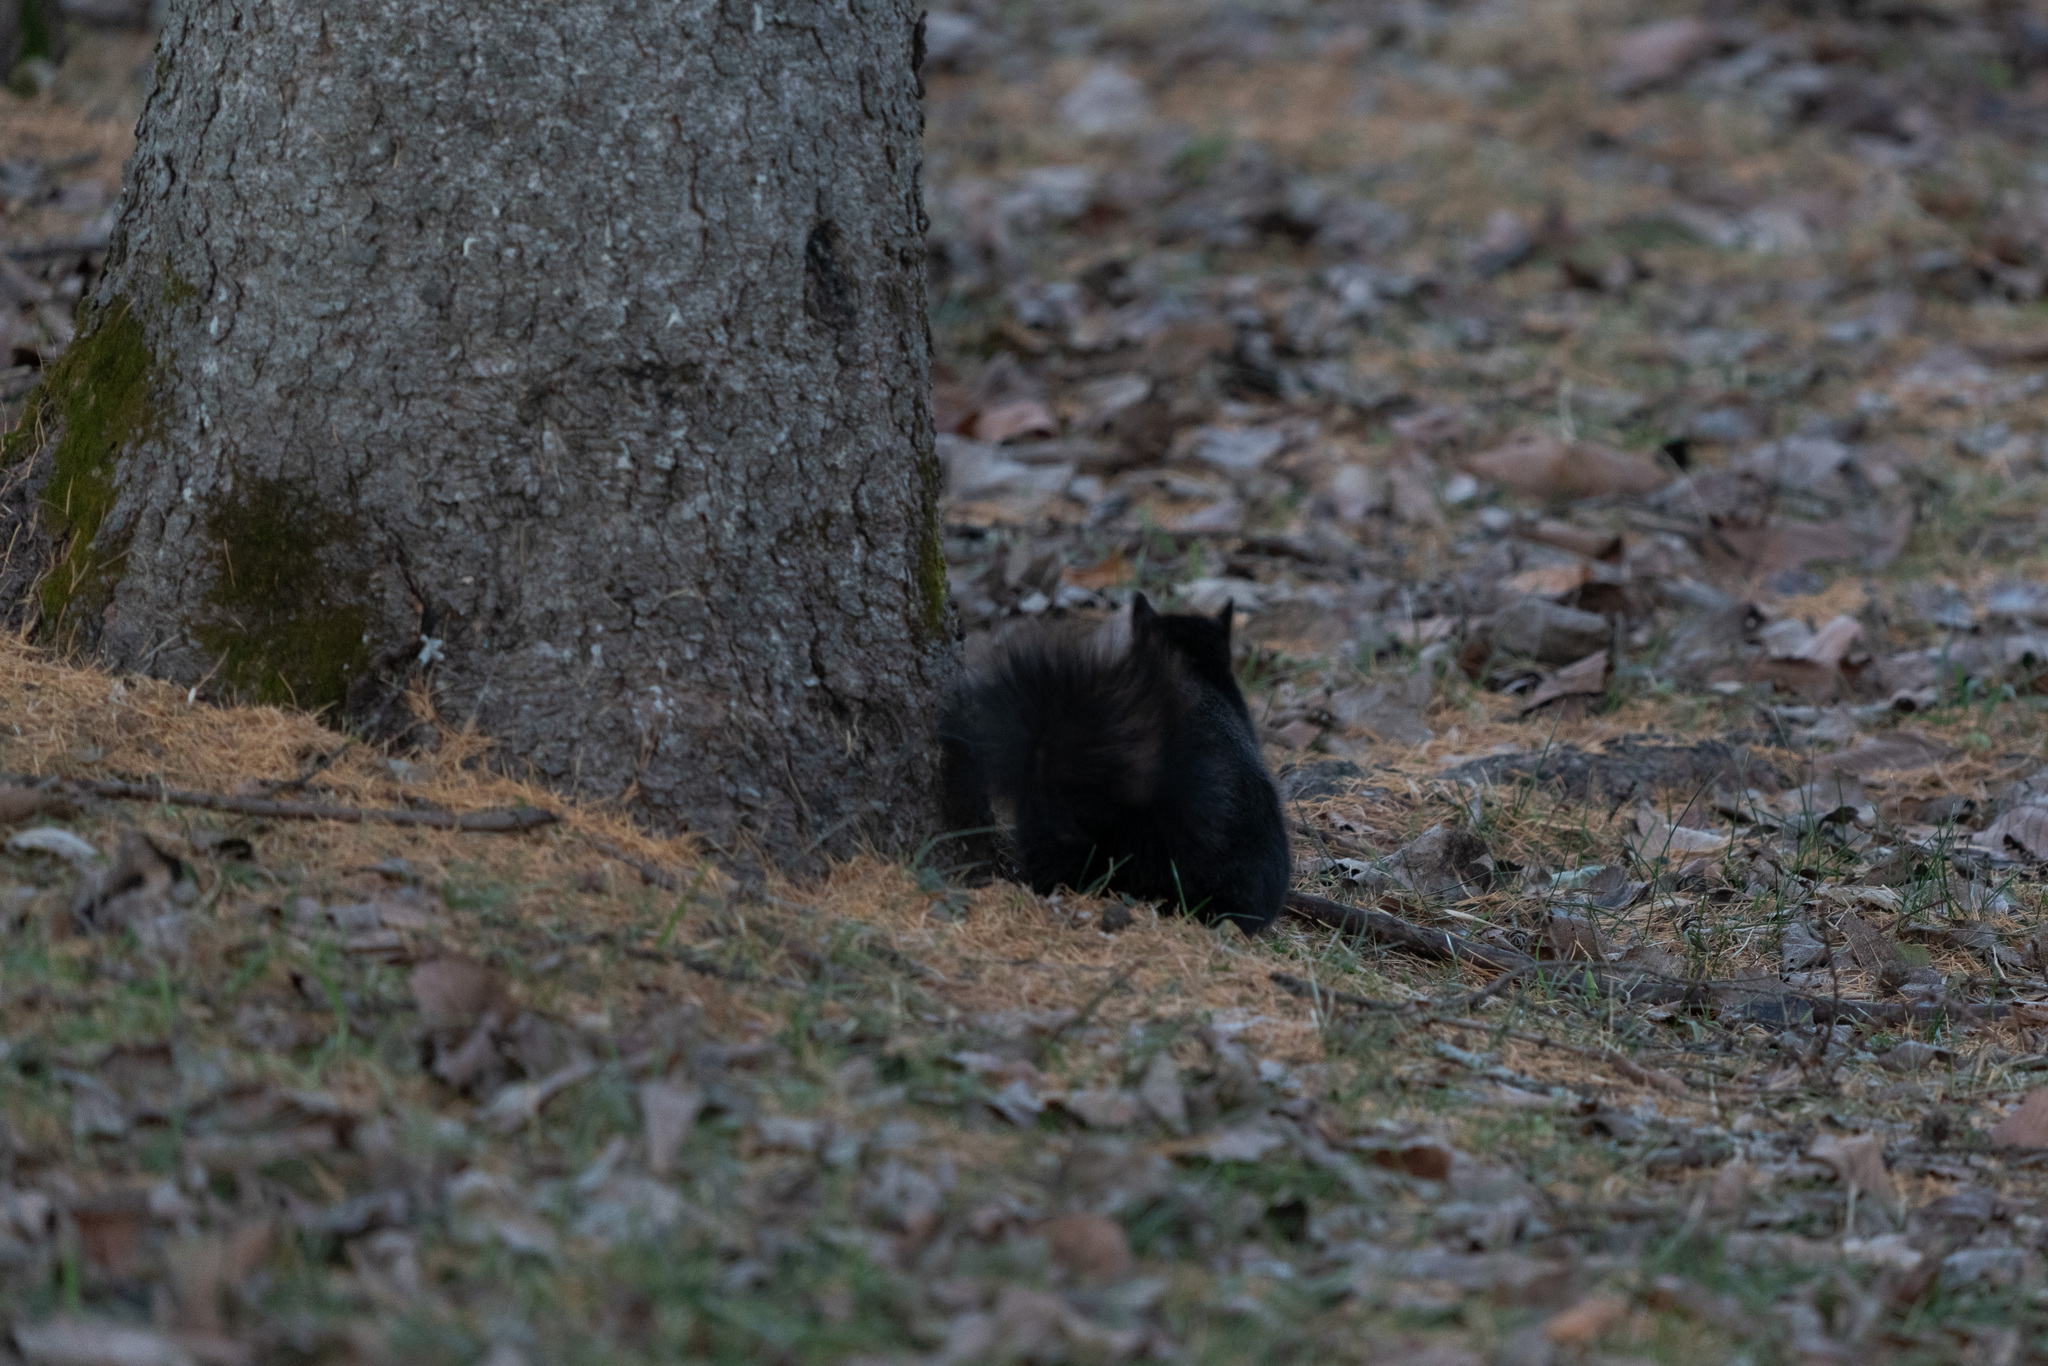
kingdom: Animalia
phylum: Chordata
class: Mammalia
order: Rodentia
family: Sciuridae
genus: Sciurus
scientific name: Sciurus carolinensis
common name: Eastern gray squirrel
